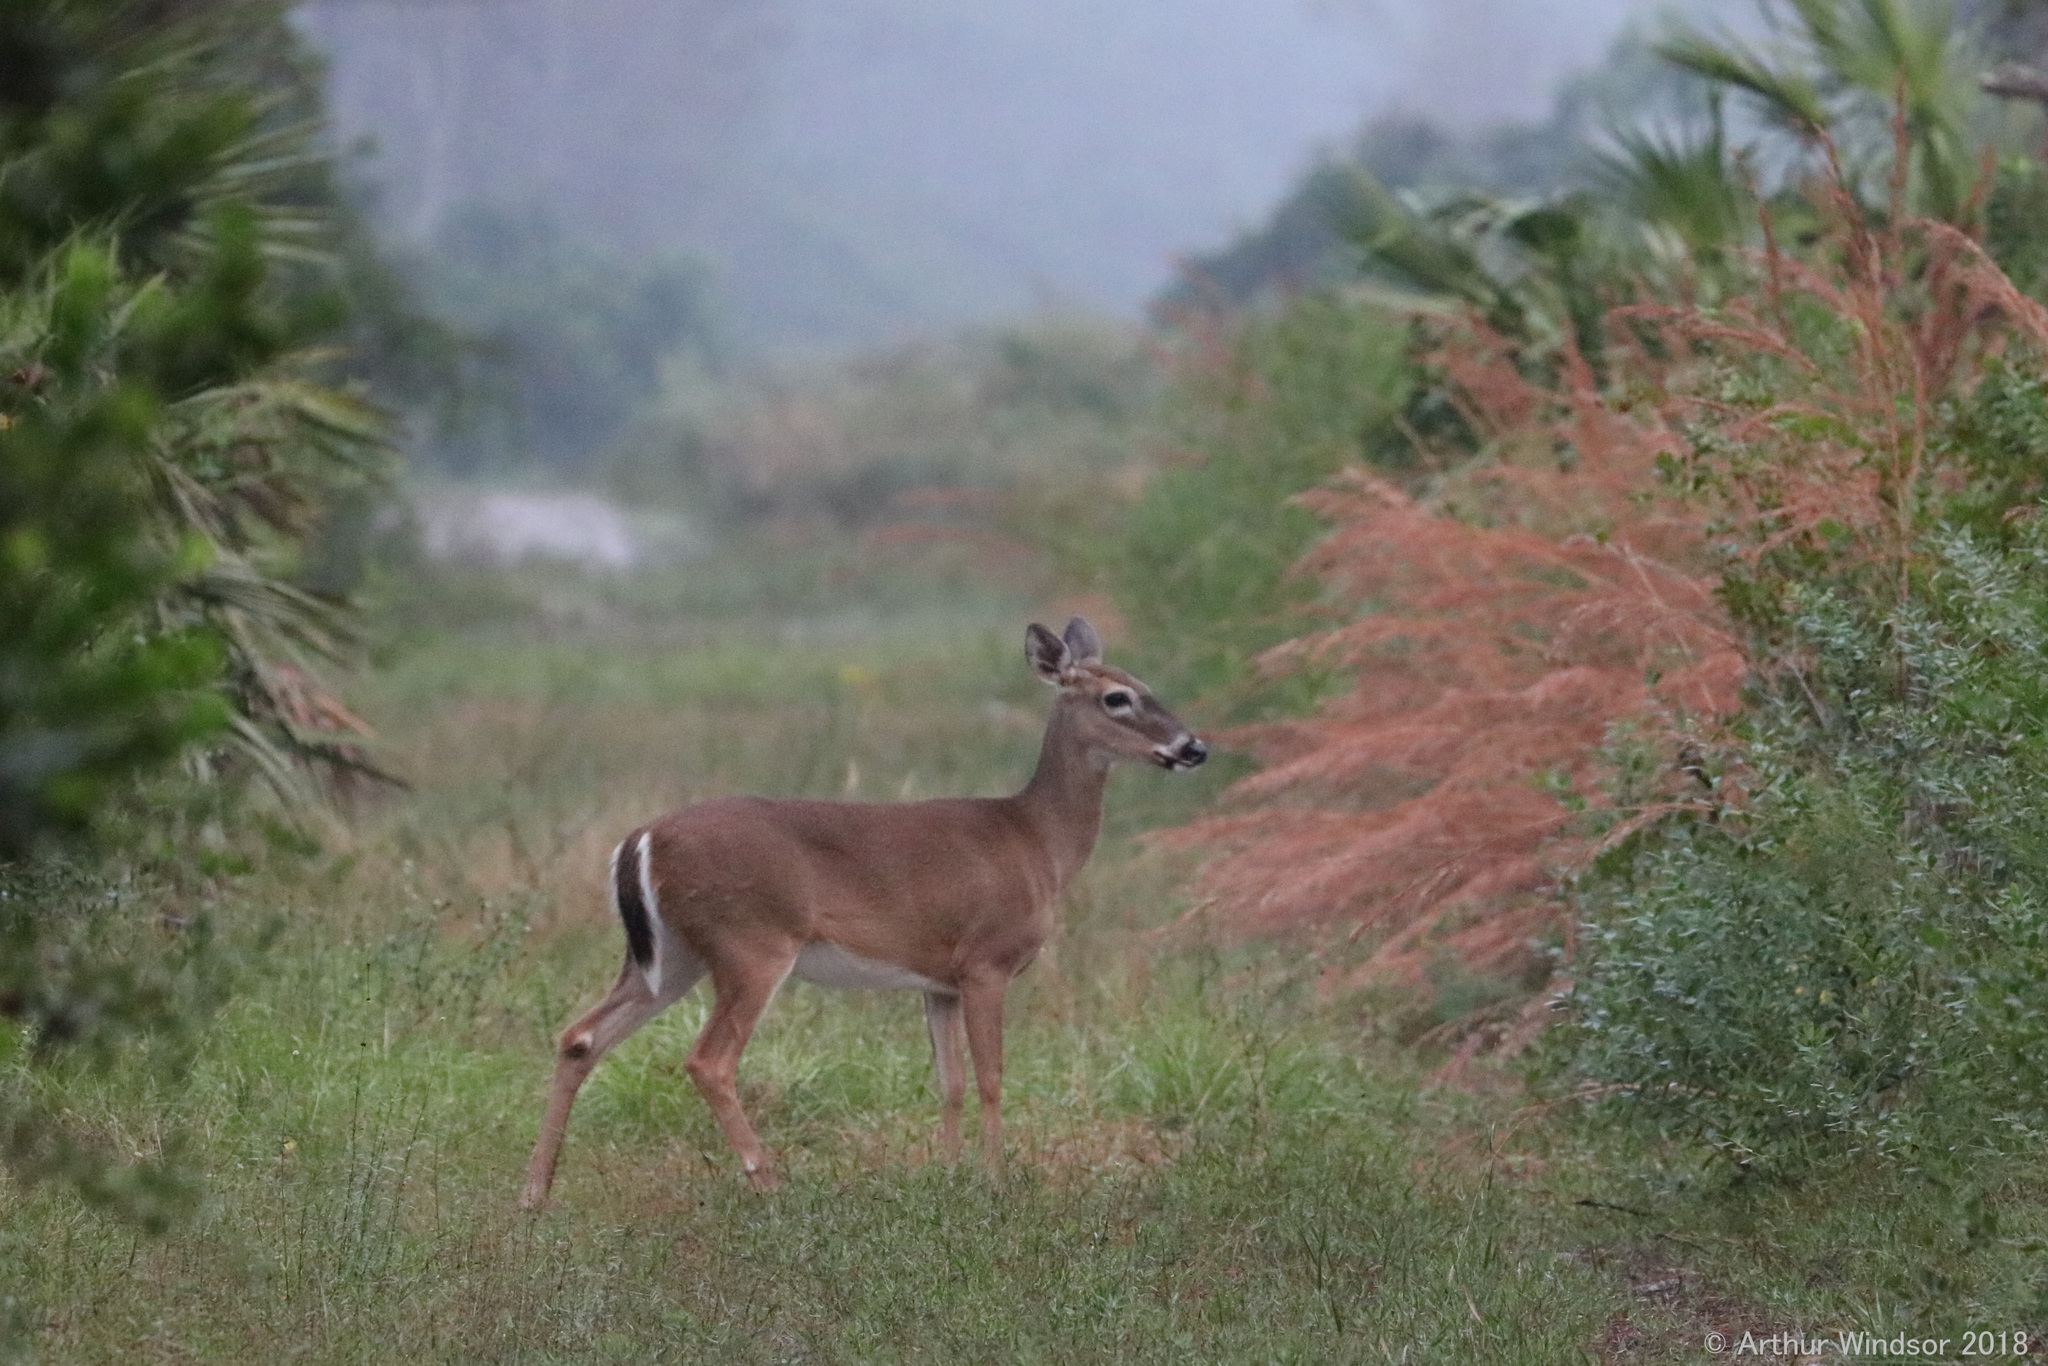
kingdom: Animalia
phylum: Chordata
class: Mammalia
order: Artiodactyla
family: Cervidae
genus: Odocoileus
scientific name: Odocoileus virginianus
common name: White-tailed deer
